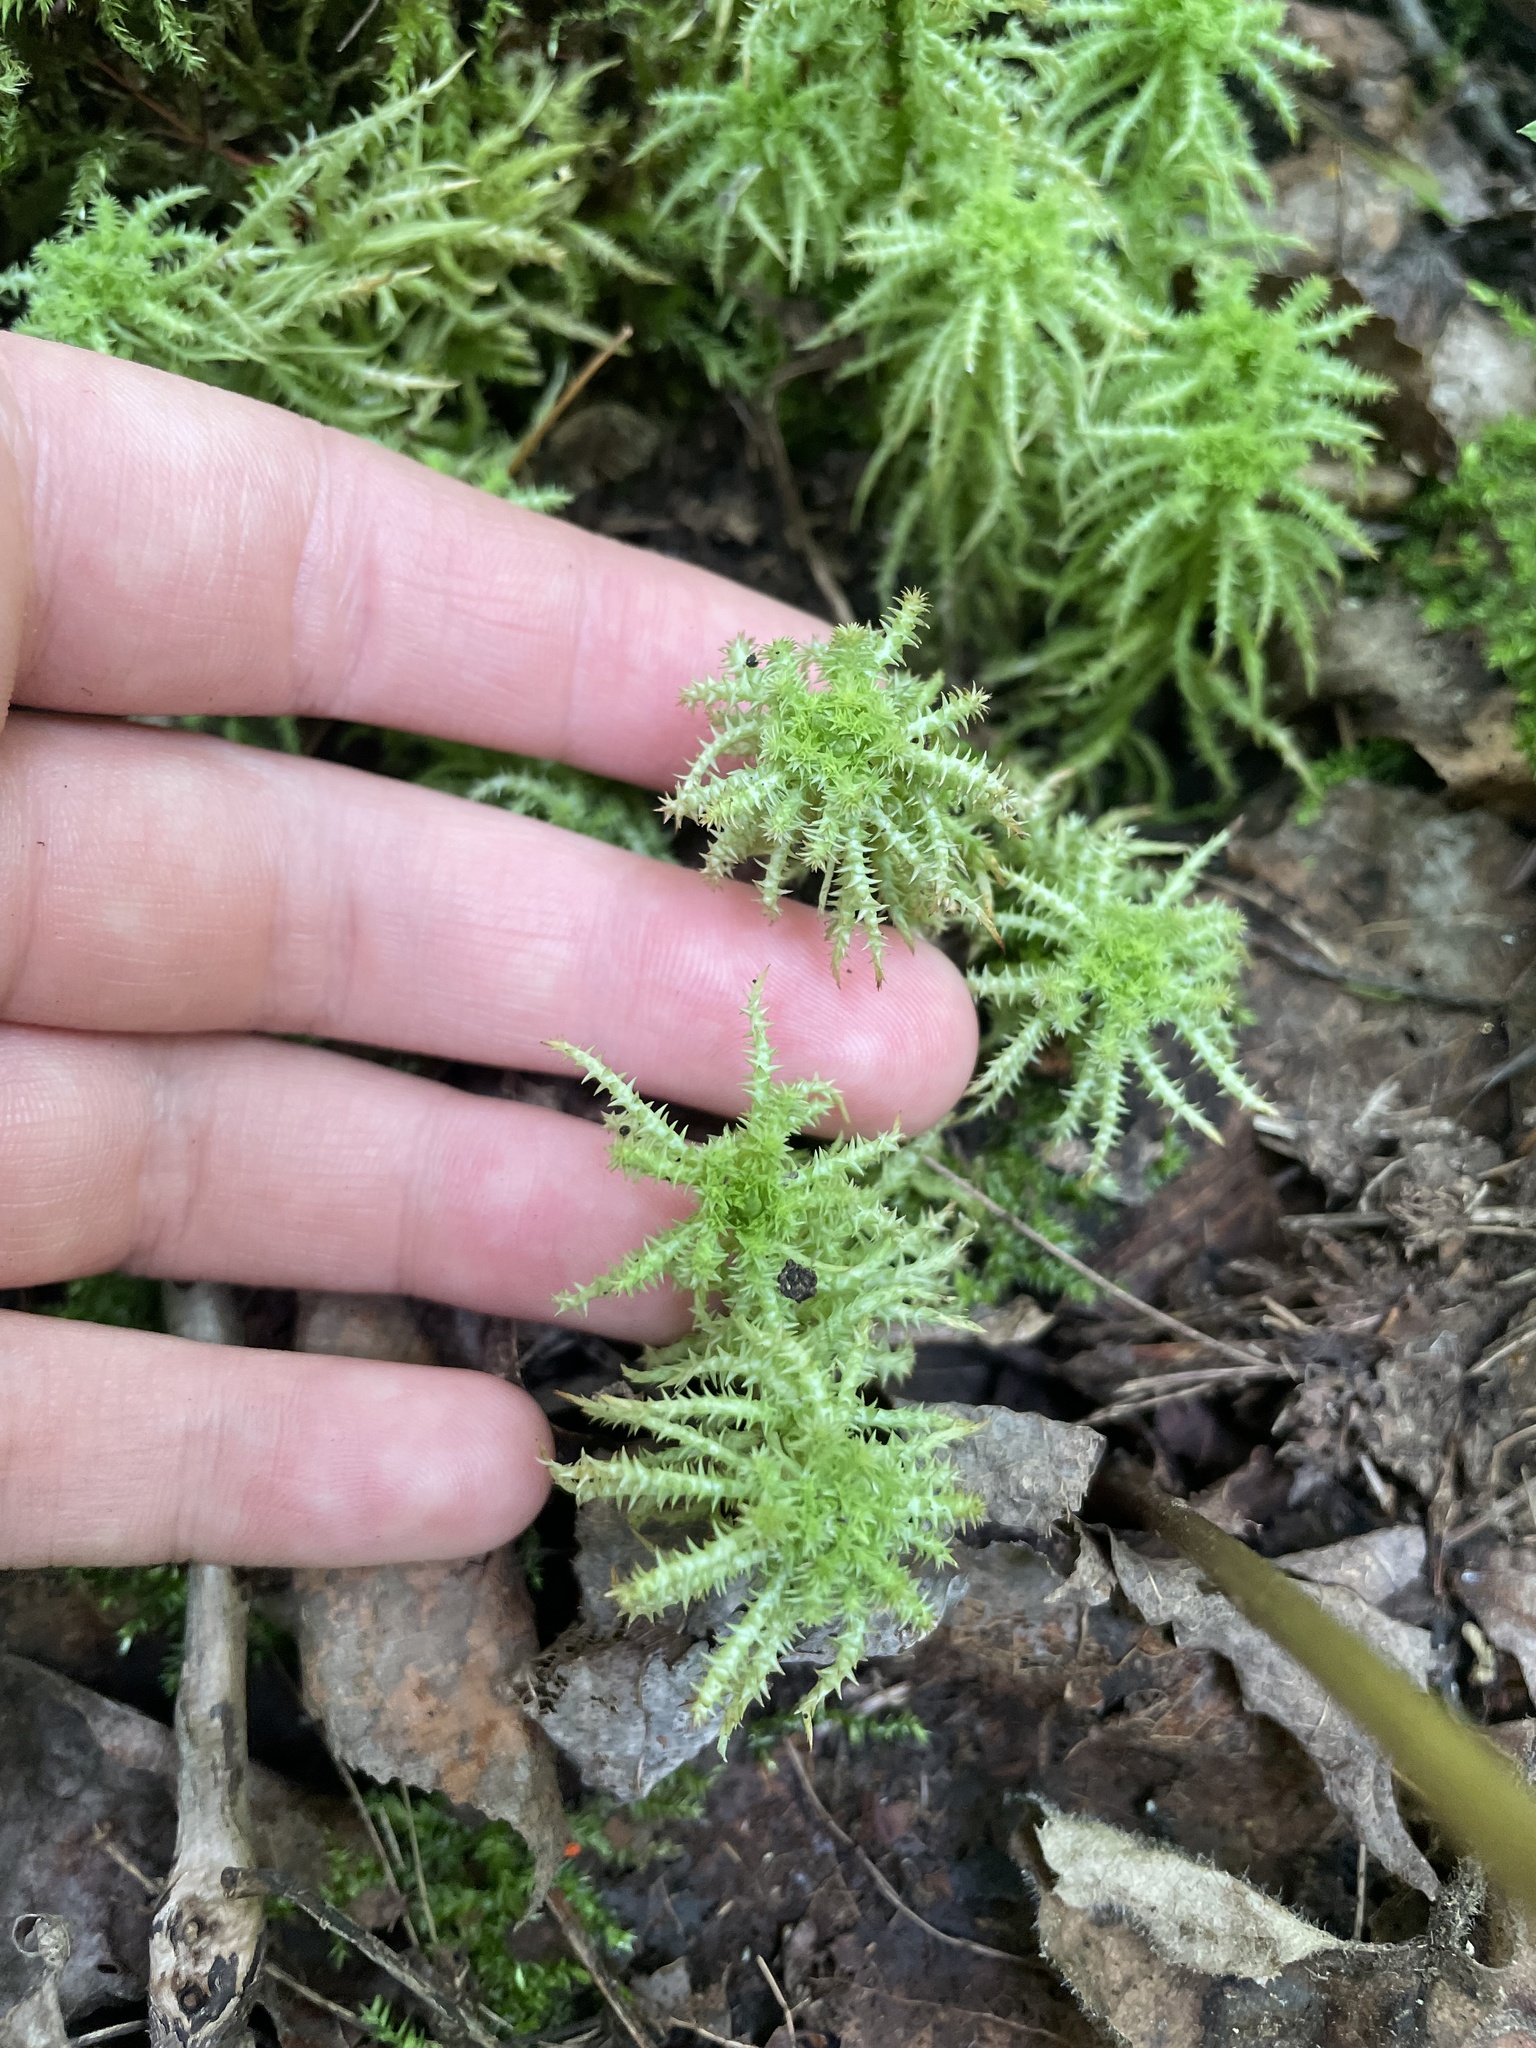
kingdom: Plantae
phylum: Bryophyta
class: Sphagnopsida
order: Sphagnales
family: Sphagnaceae
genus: Sphagnum
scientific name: Sphagnum squarrosum
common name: Shaggy peat moss
